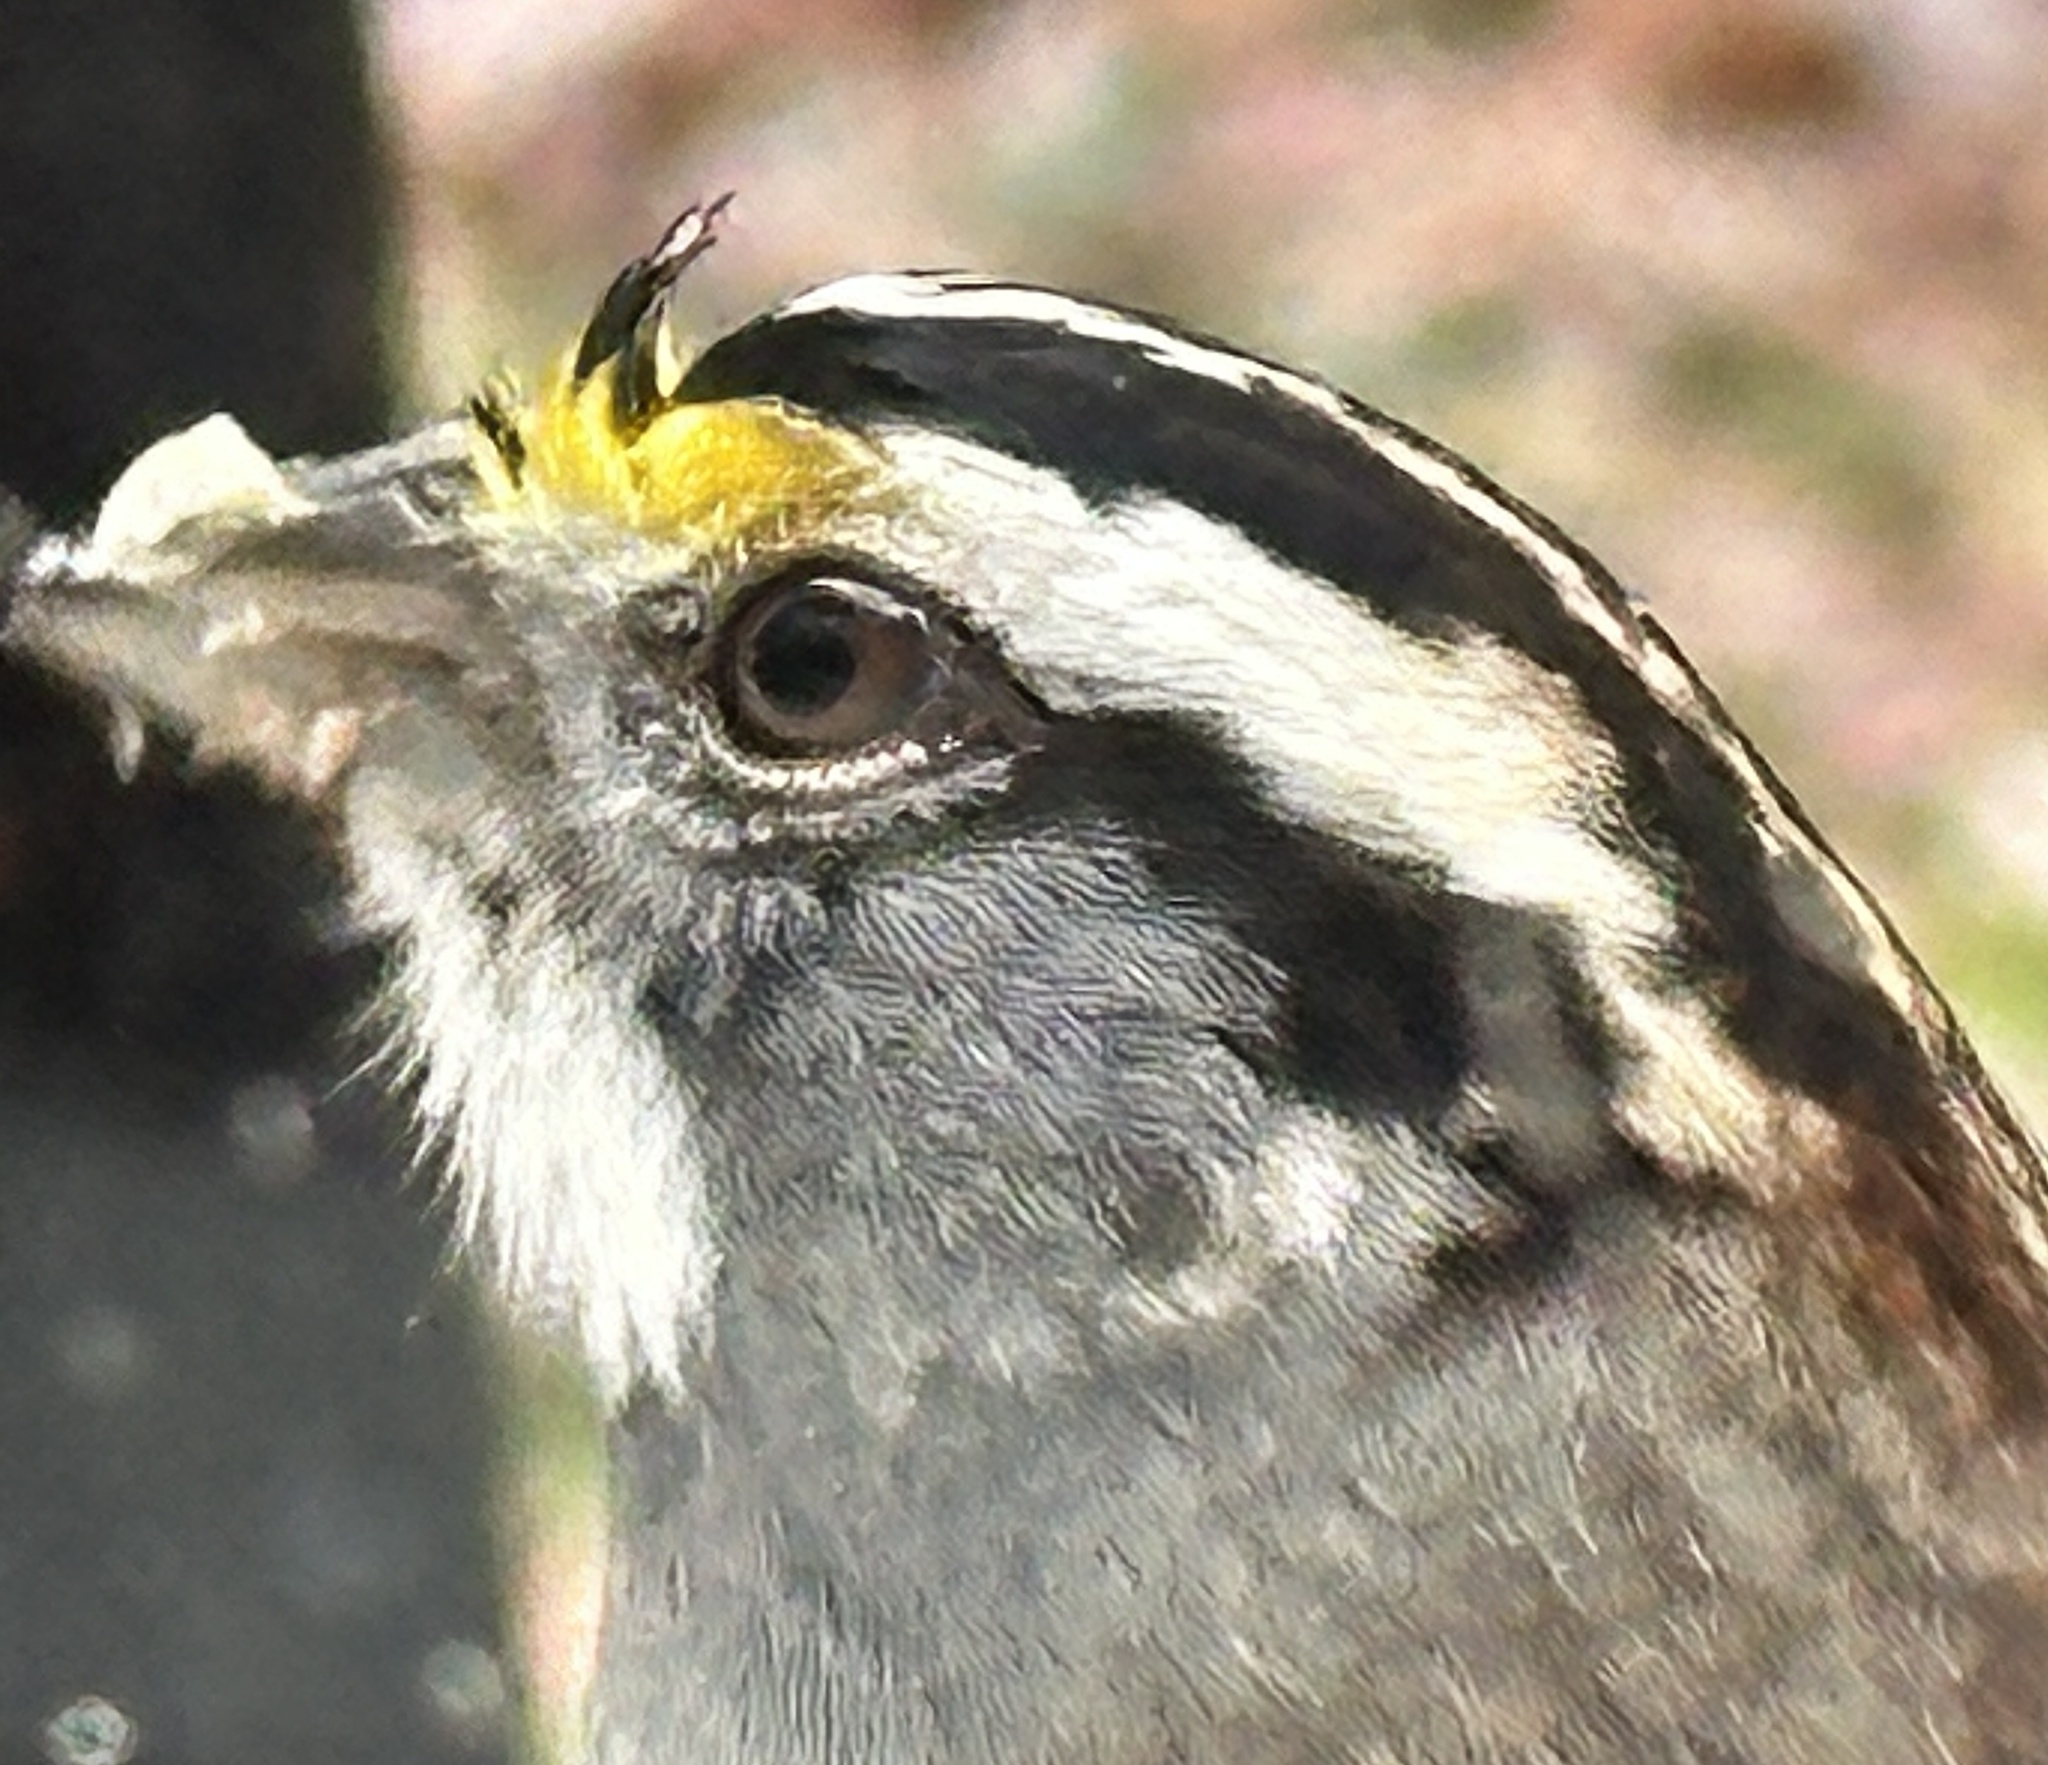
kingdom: Animalia
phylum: Chordata
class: Aves
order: Passeriformes
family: Passerellidae
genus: Zonotrichia
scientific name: Zonotrichia albicollis
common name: White-throated sparrow
